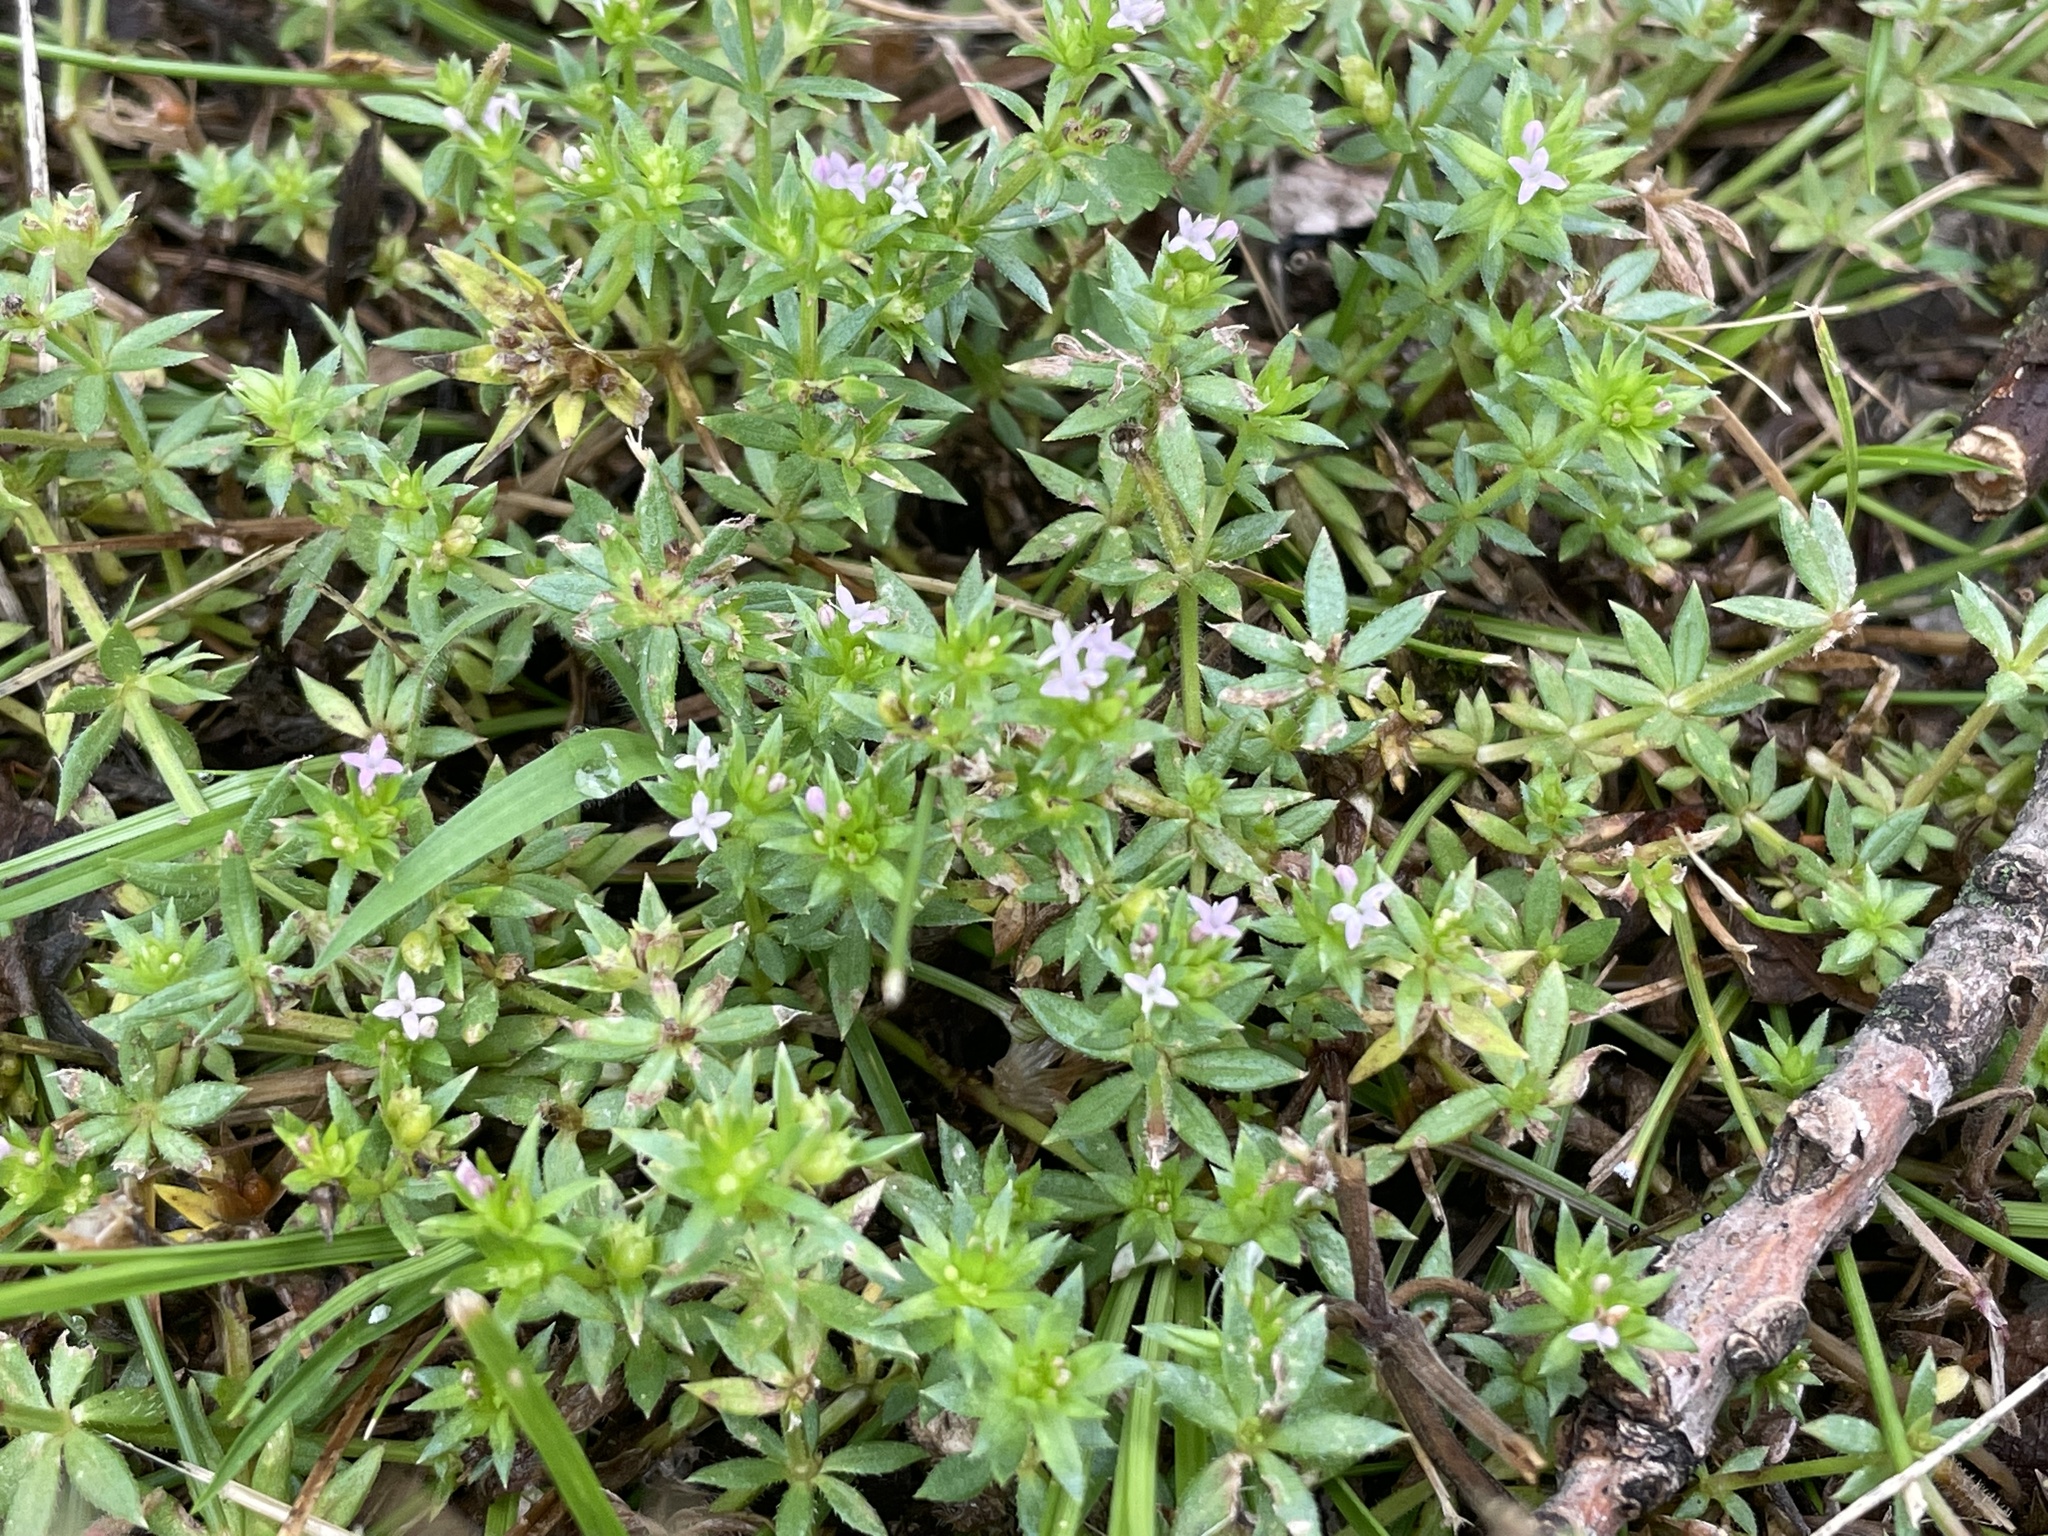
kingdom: Plantae
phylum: Tracheophyta
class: Magnoliopsida
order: Gentianales
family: Rubiaceae
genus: Sherardia
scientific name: Sherardia arvensis
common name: Field madder
